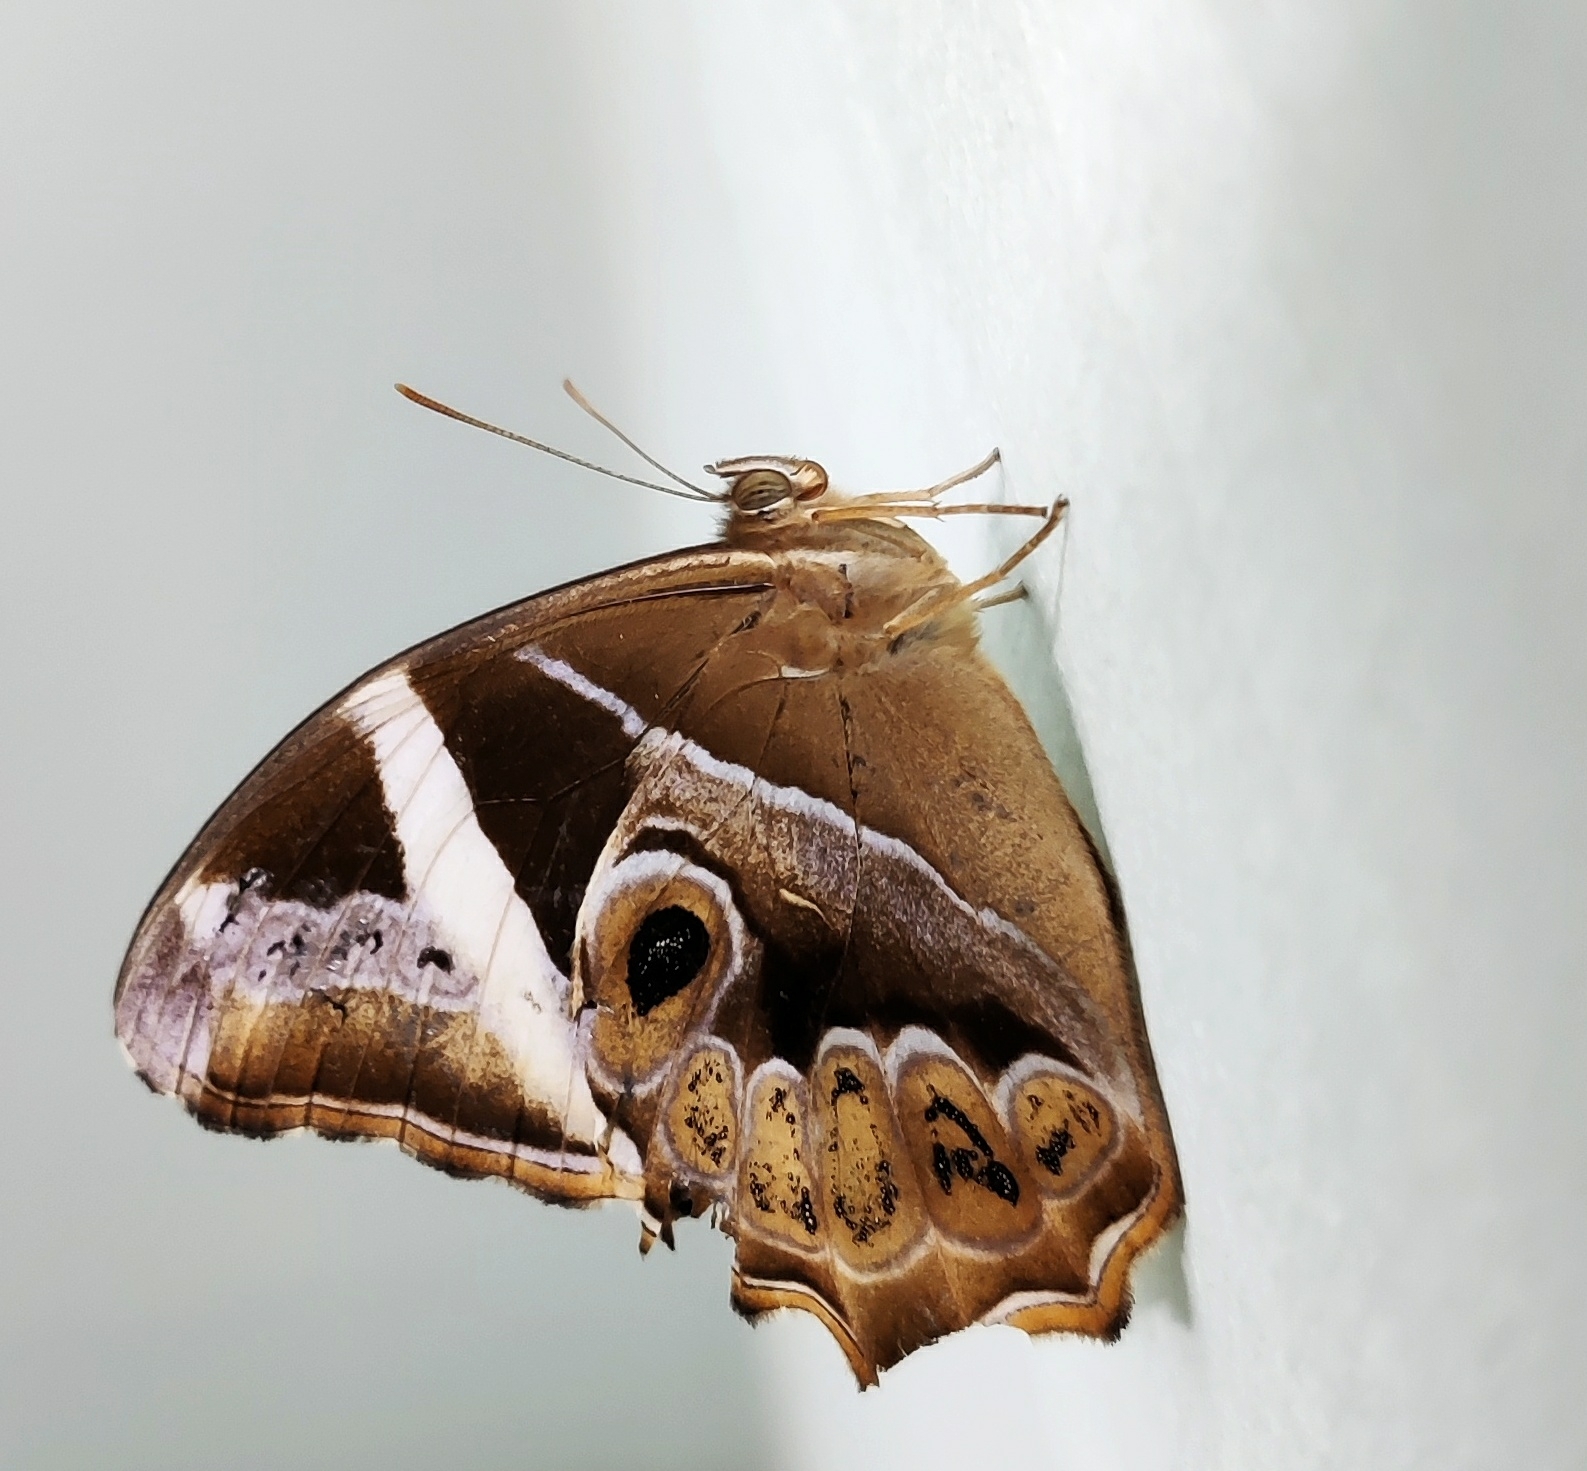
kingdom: Animalia
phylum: Arthropoda
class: Insecta
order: Lepidoptera
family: Nymphalidae
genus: Lethe
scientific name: Lethe europa
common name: Bamboo treebrown
